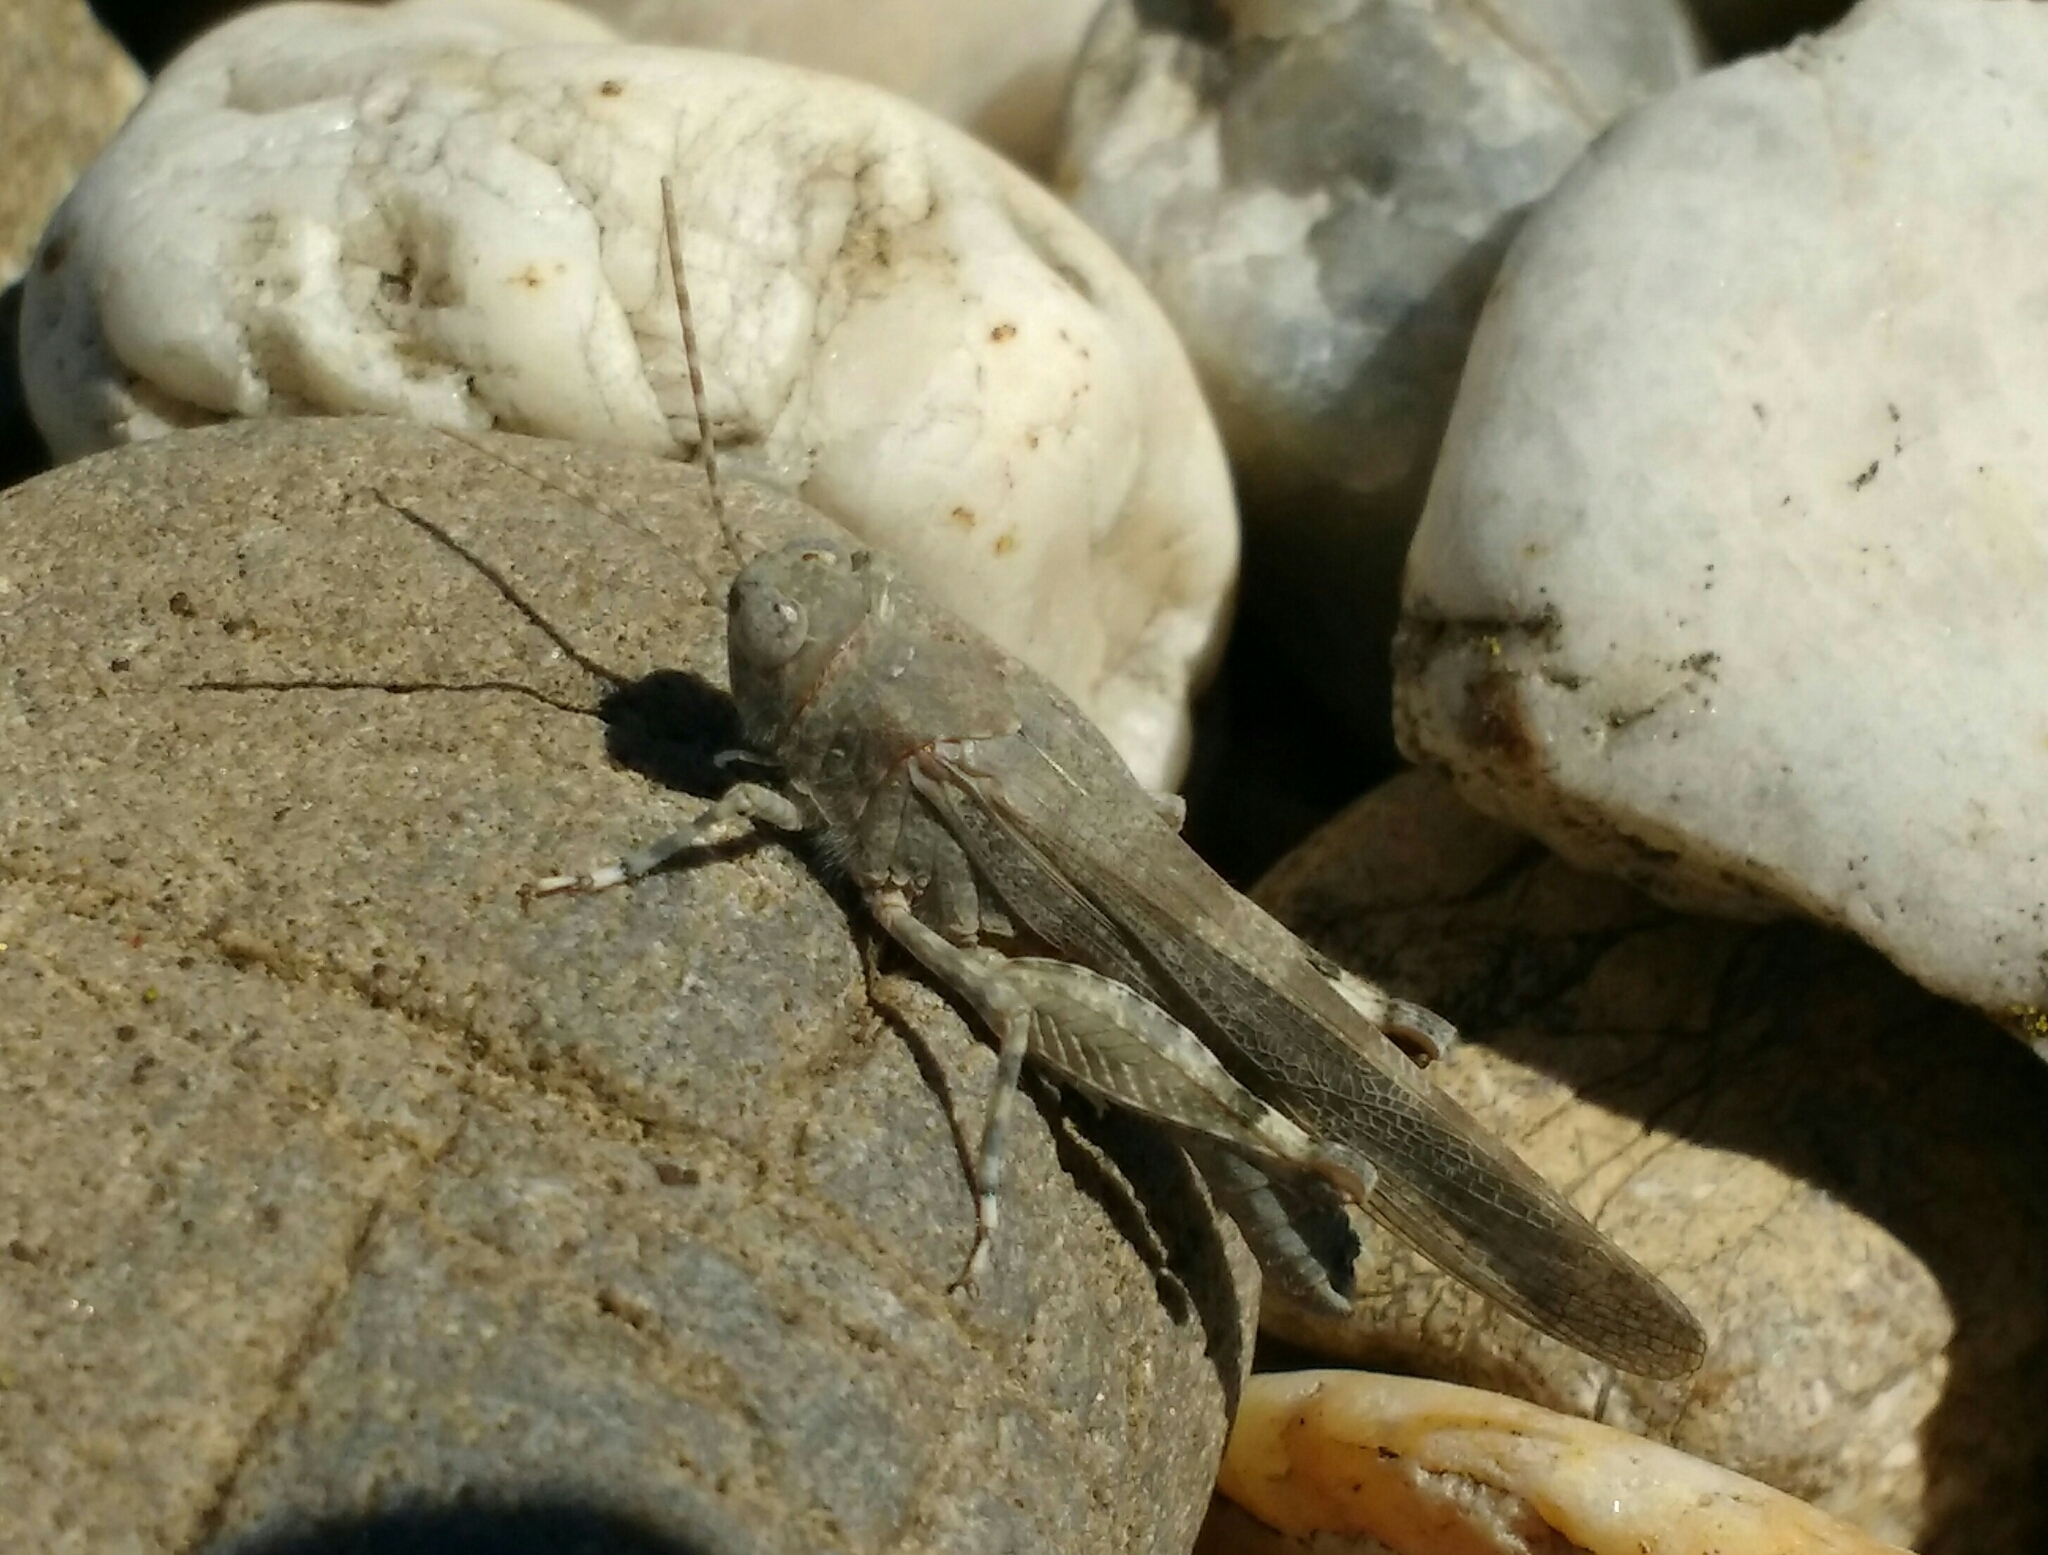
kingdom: Animalia
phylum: Arthropoda
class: Insecta
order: Orthoptera
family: Acrididae
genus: Sphingonotus
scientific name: Sphingonotus caerulans
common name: Blue-winged locust
